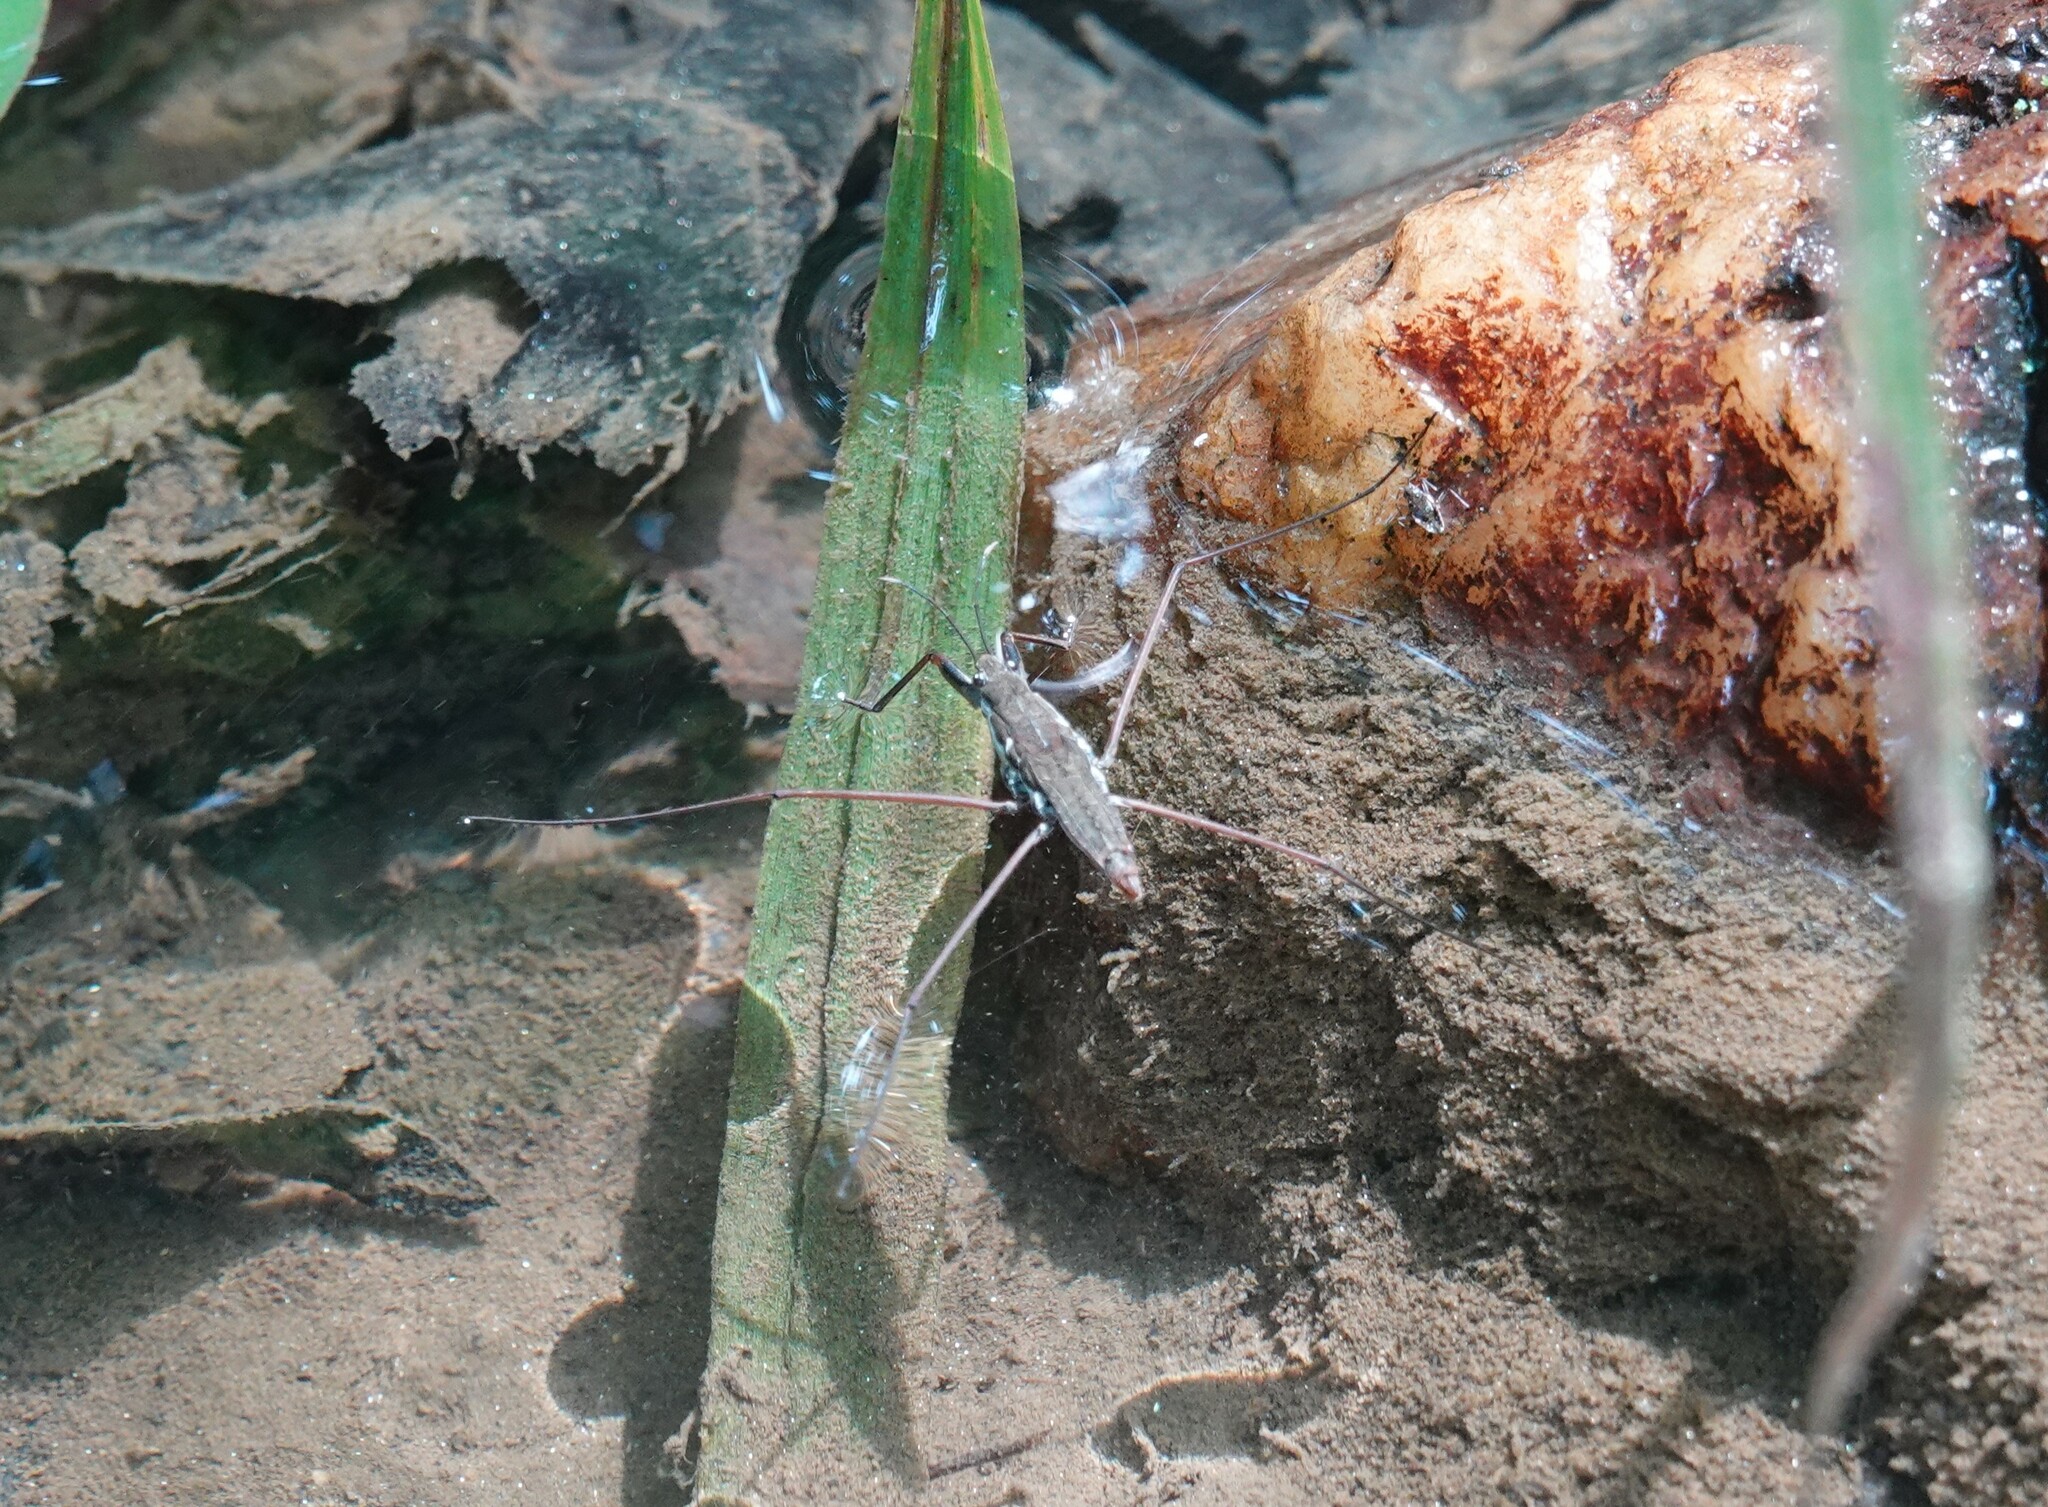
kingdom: Animalia
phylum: Arthropoda
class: Insecta
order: Hemiptera
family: Gerridae
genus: Aquarius
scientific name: Aquarius
